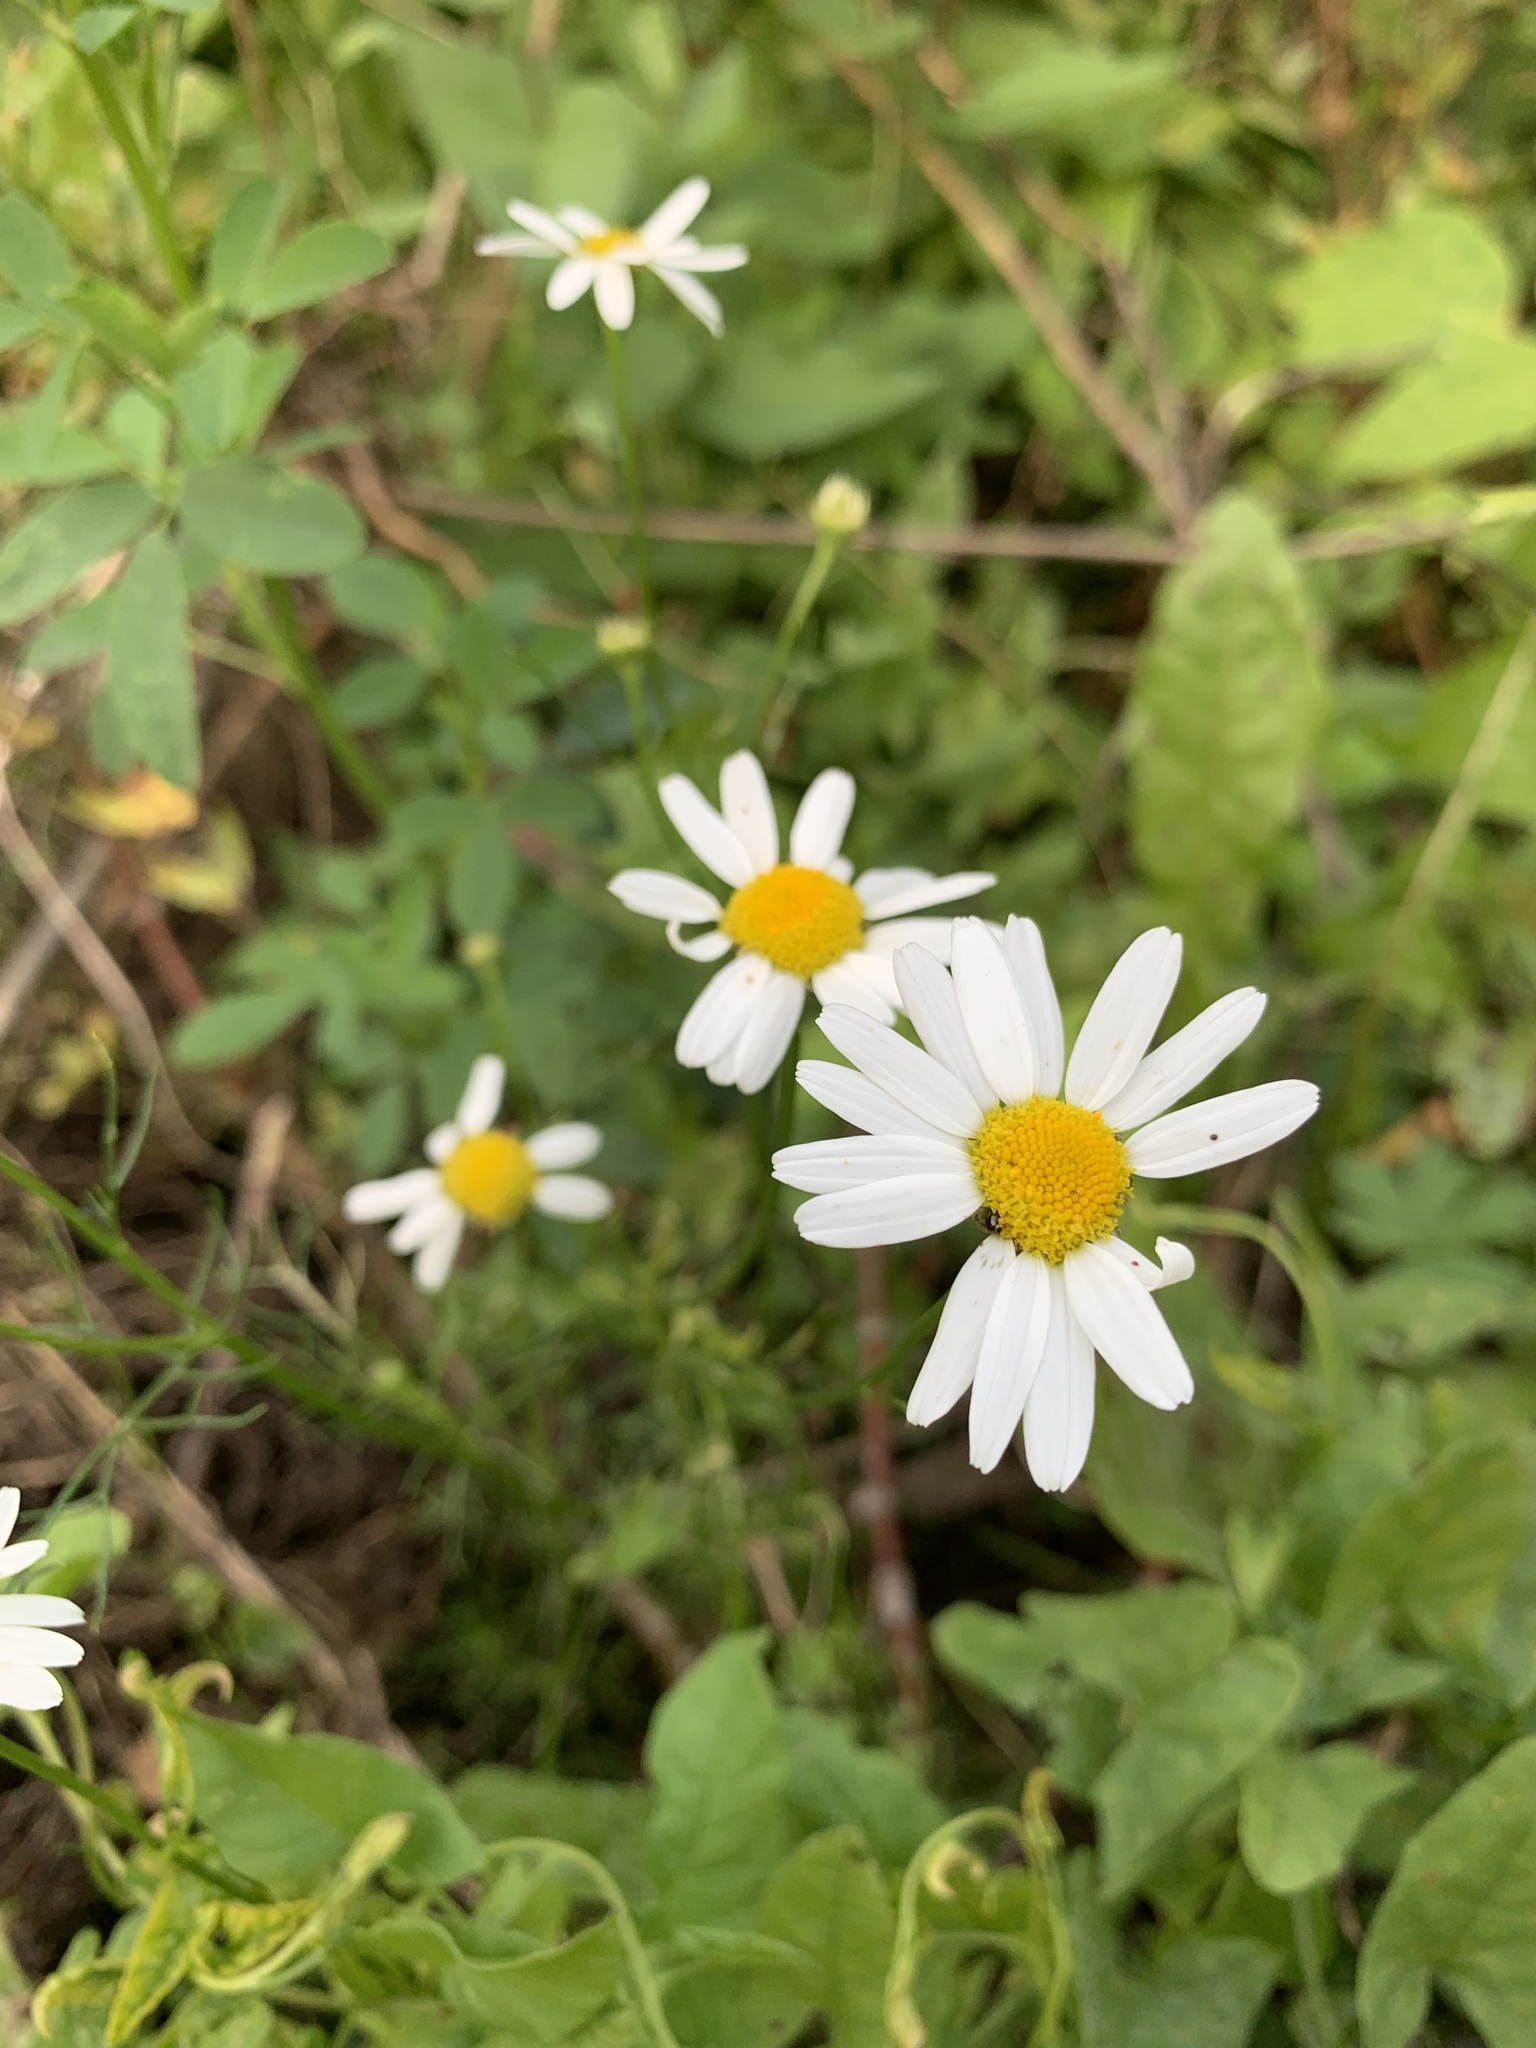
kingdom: Plantae
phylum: Tracheophyta
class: Magnoliopsida
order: Asterales
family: Asteraceae
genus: Tripleurospermum
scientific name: Tripleurospermum inodorum
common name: Scentless mayweed
